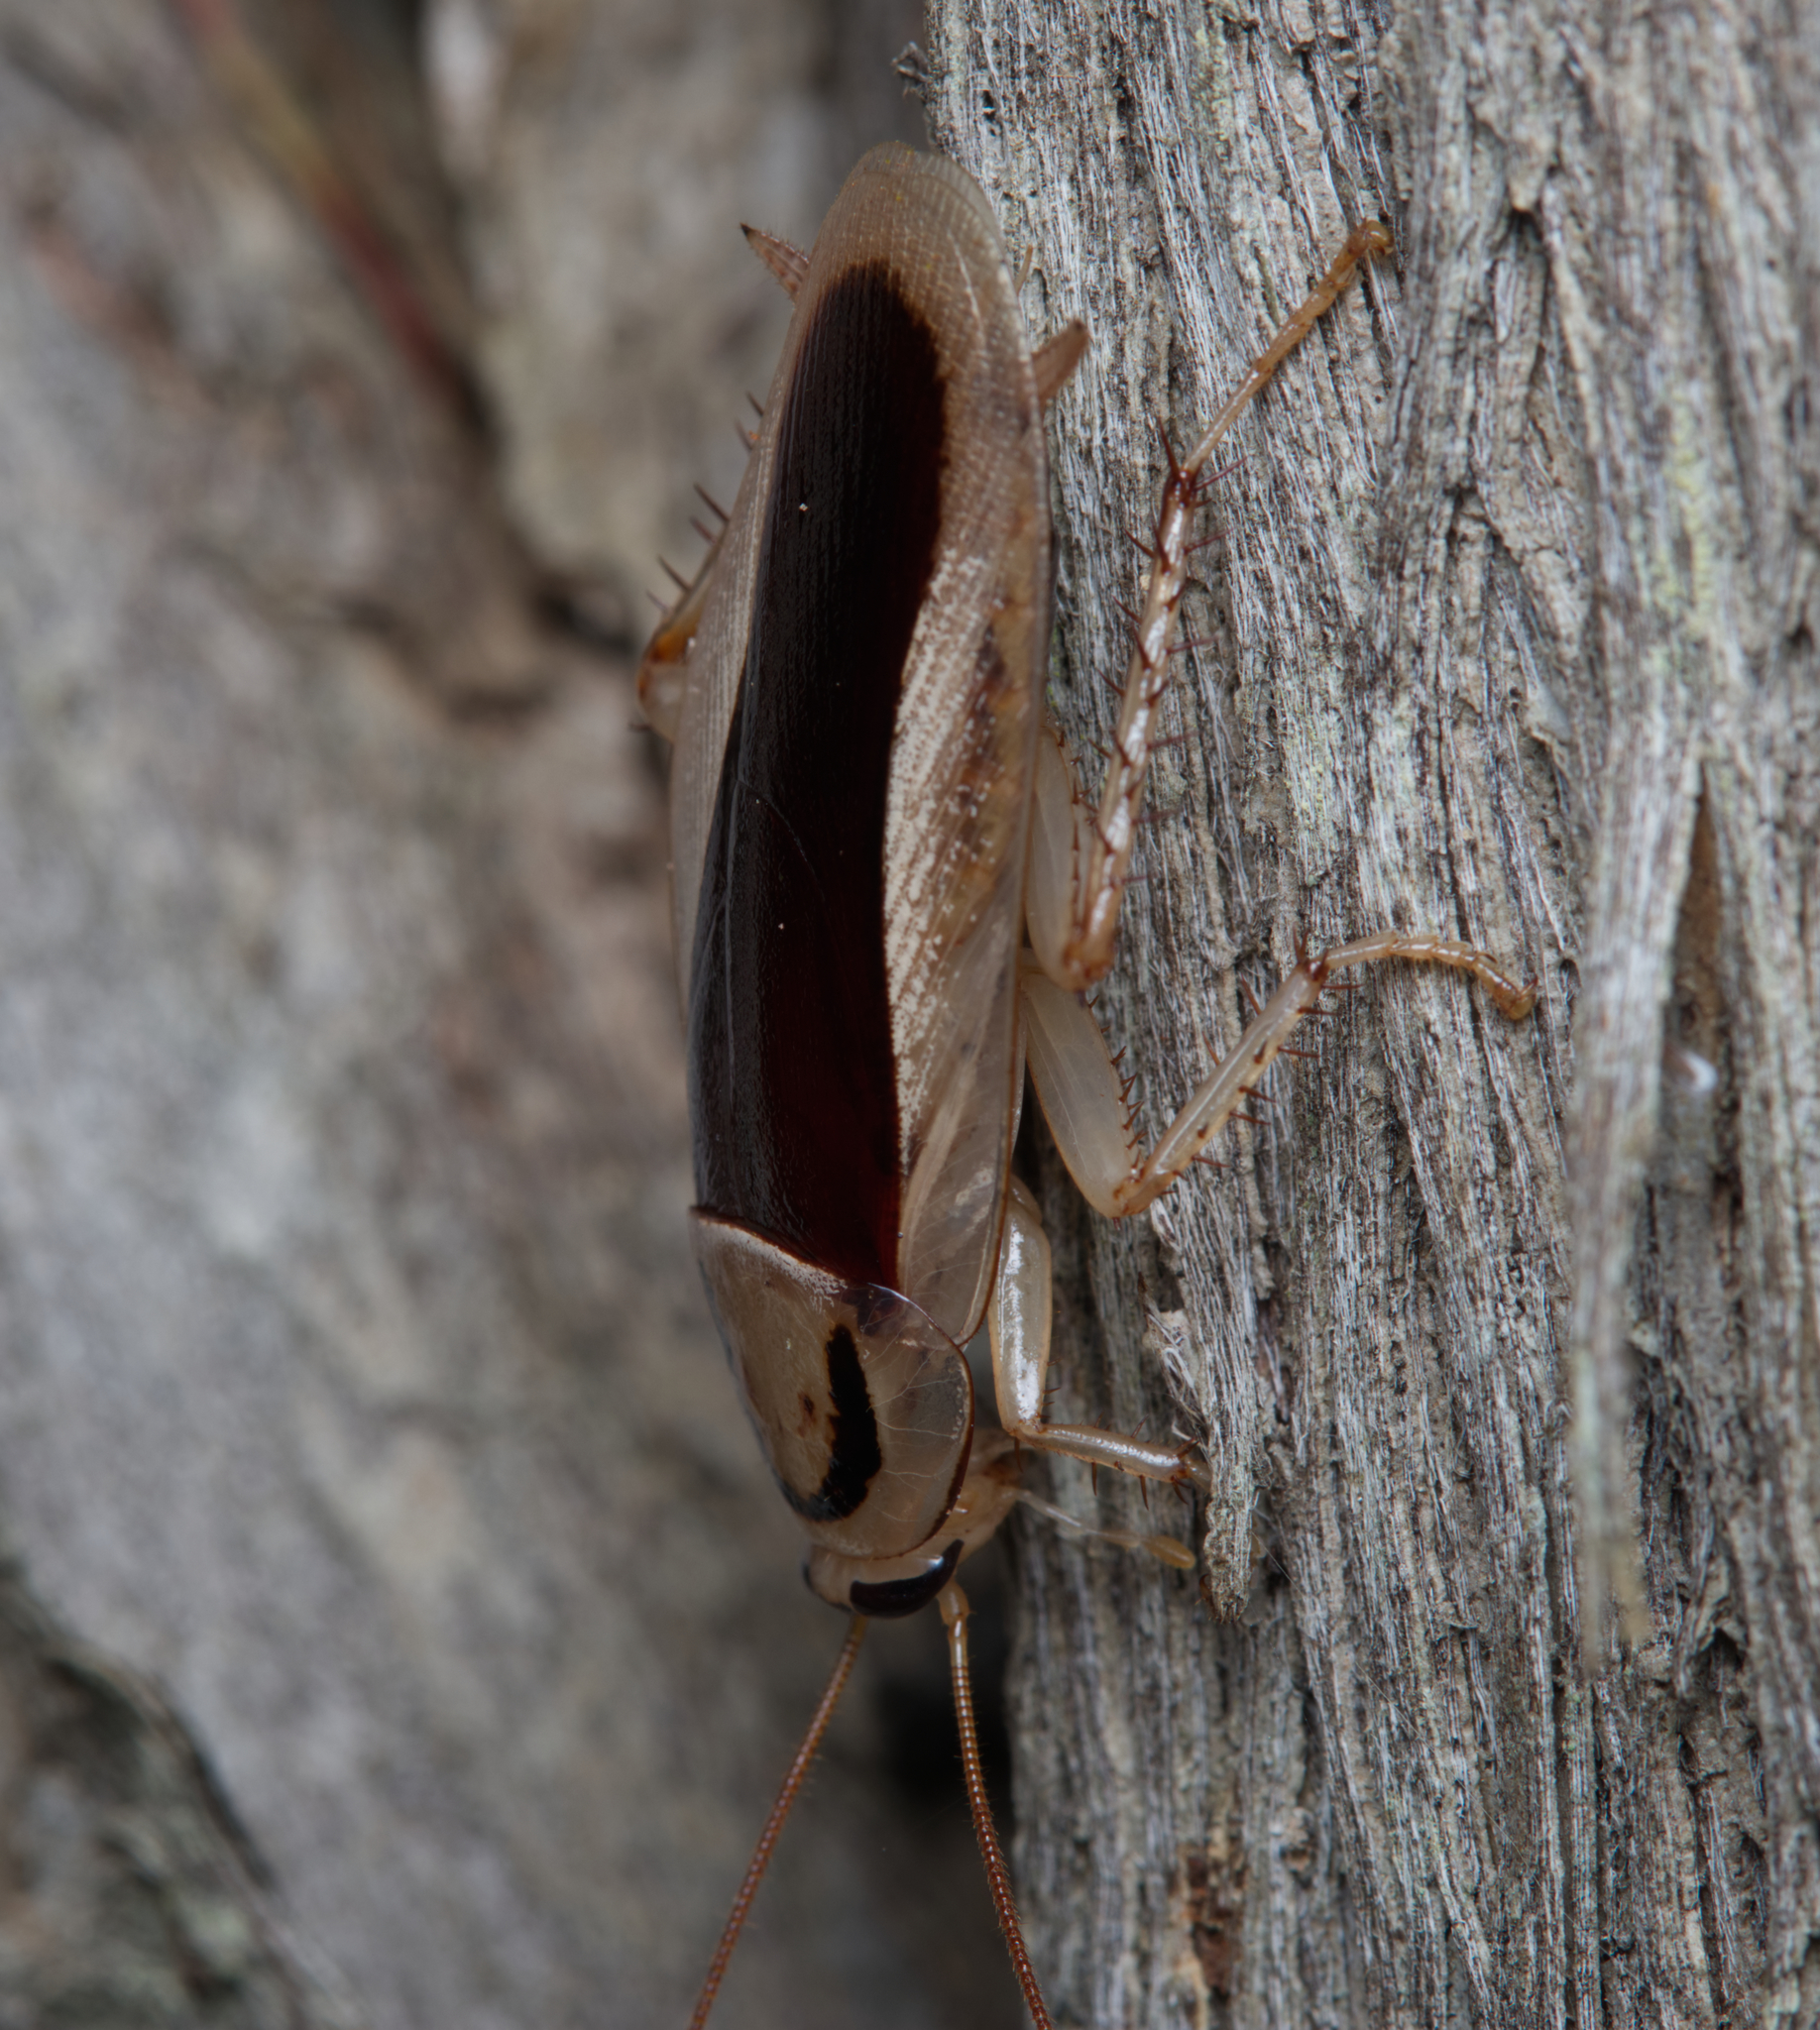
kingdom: Animalia
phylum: Arthropoda
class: Insecta
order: Blattodea
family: Blattidae
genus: Methana
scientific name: Methana curvigera
